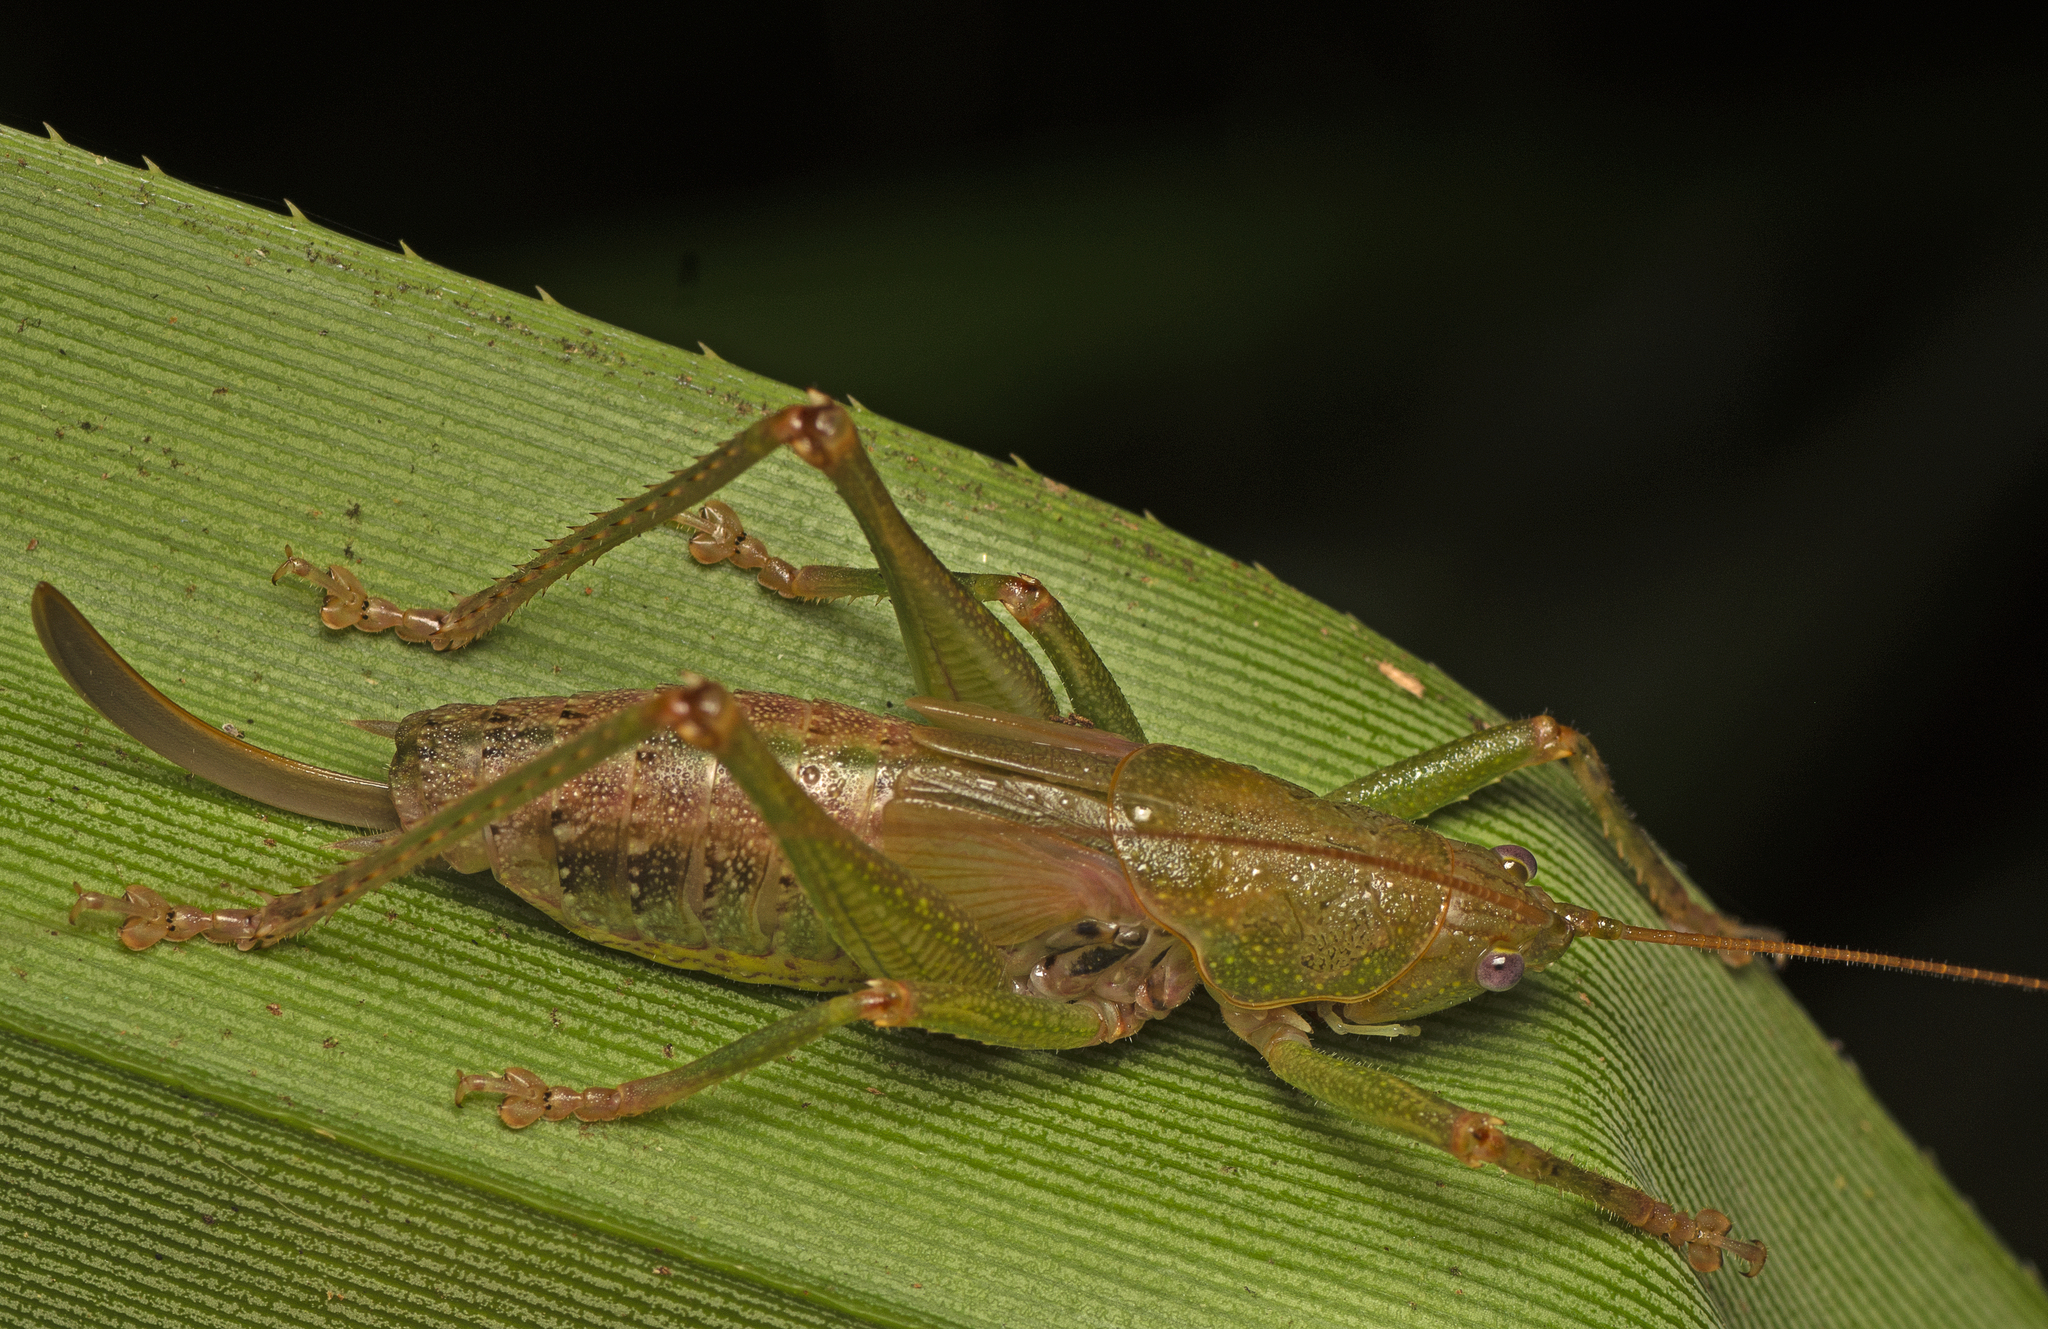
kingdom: Animalia
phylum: Arthropoda
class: Insecta
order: Orthoptera
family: Tettigoniidae
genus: Austrosalomona
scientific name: Austrosalomona destructor
